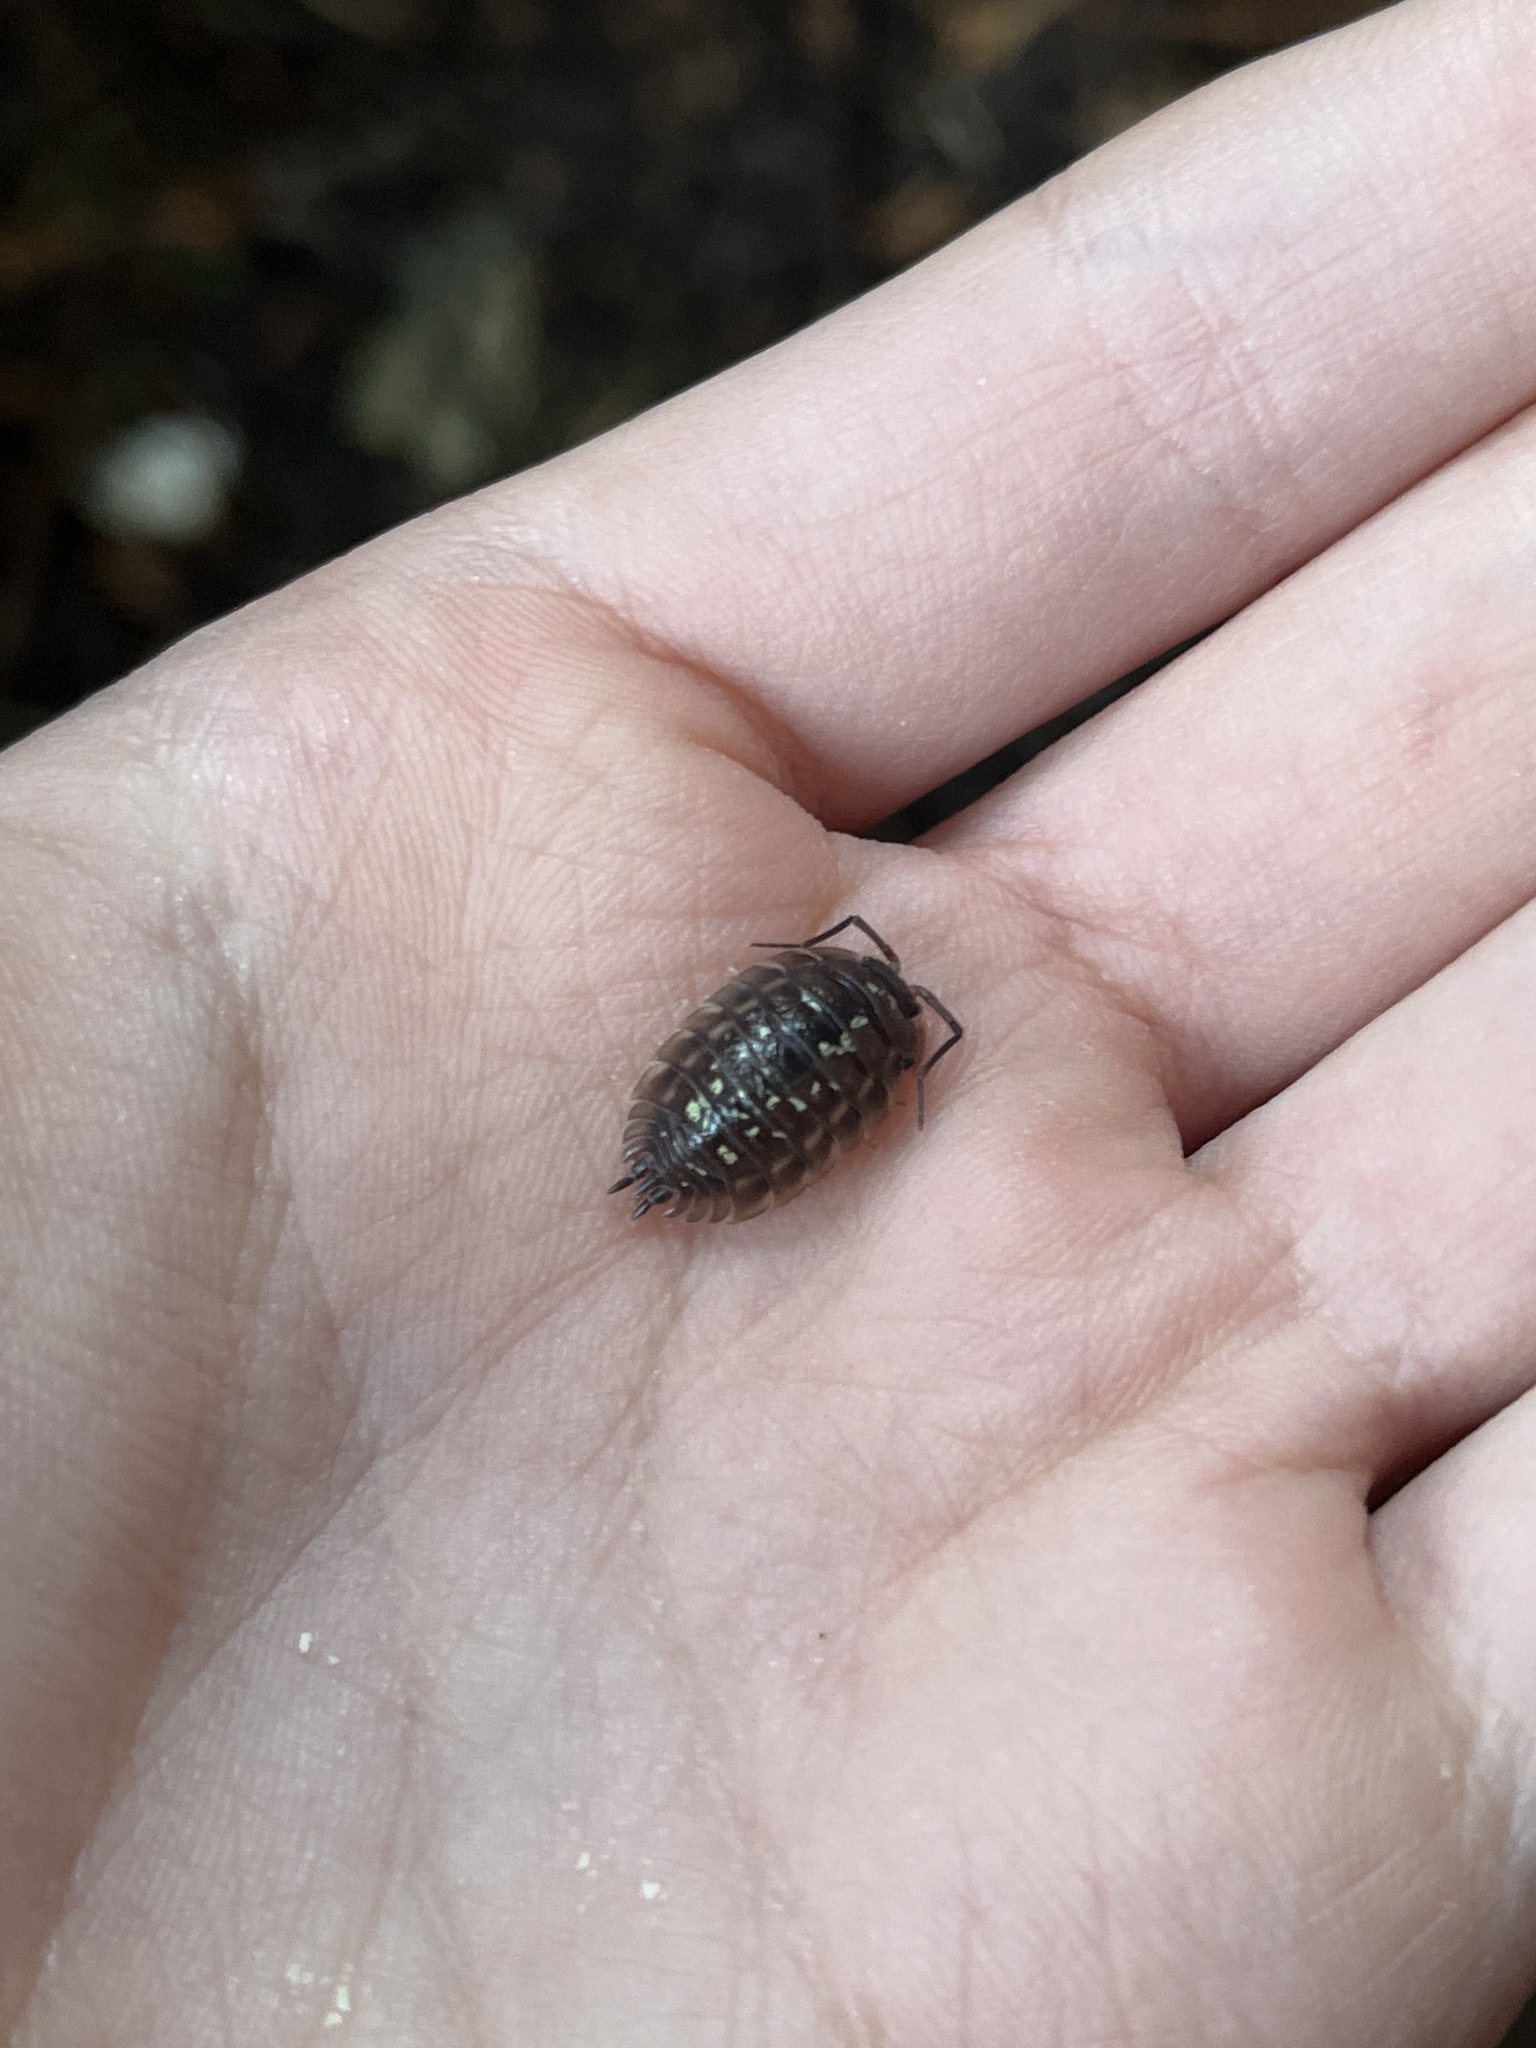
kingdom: Animalia
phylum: Arthropoda
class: Malacostraca
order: Isopoda
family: Oniscidae
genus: Oniscus
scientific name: Oniscus asellus
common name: Common shiny woodlouse
